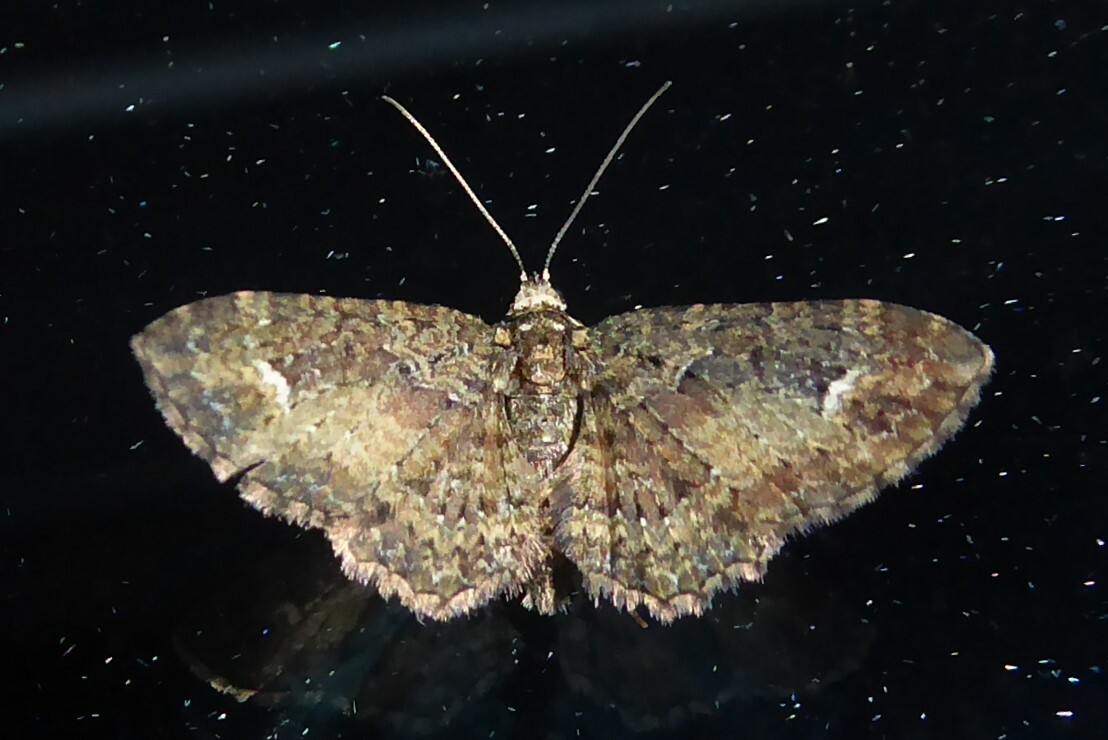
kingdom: Animalia
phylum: Arthropoda
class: Insecta
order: Lepidoptera
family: Geometridae
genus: Pasiphilodes
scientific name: Pasiphilodes testulata
